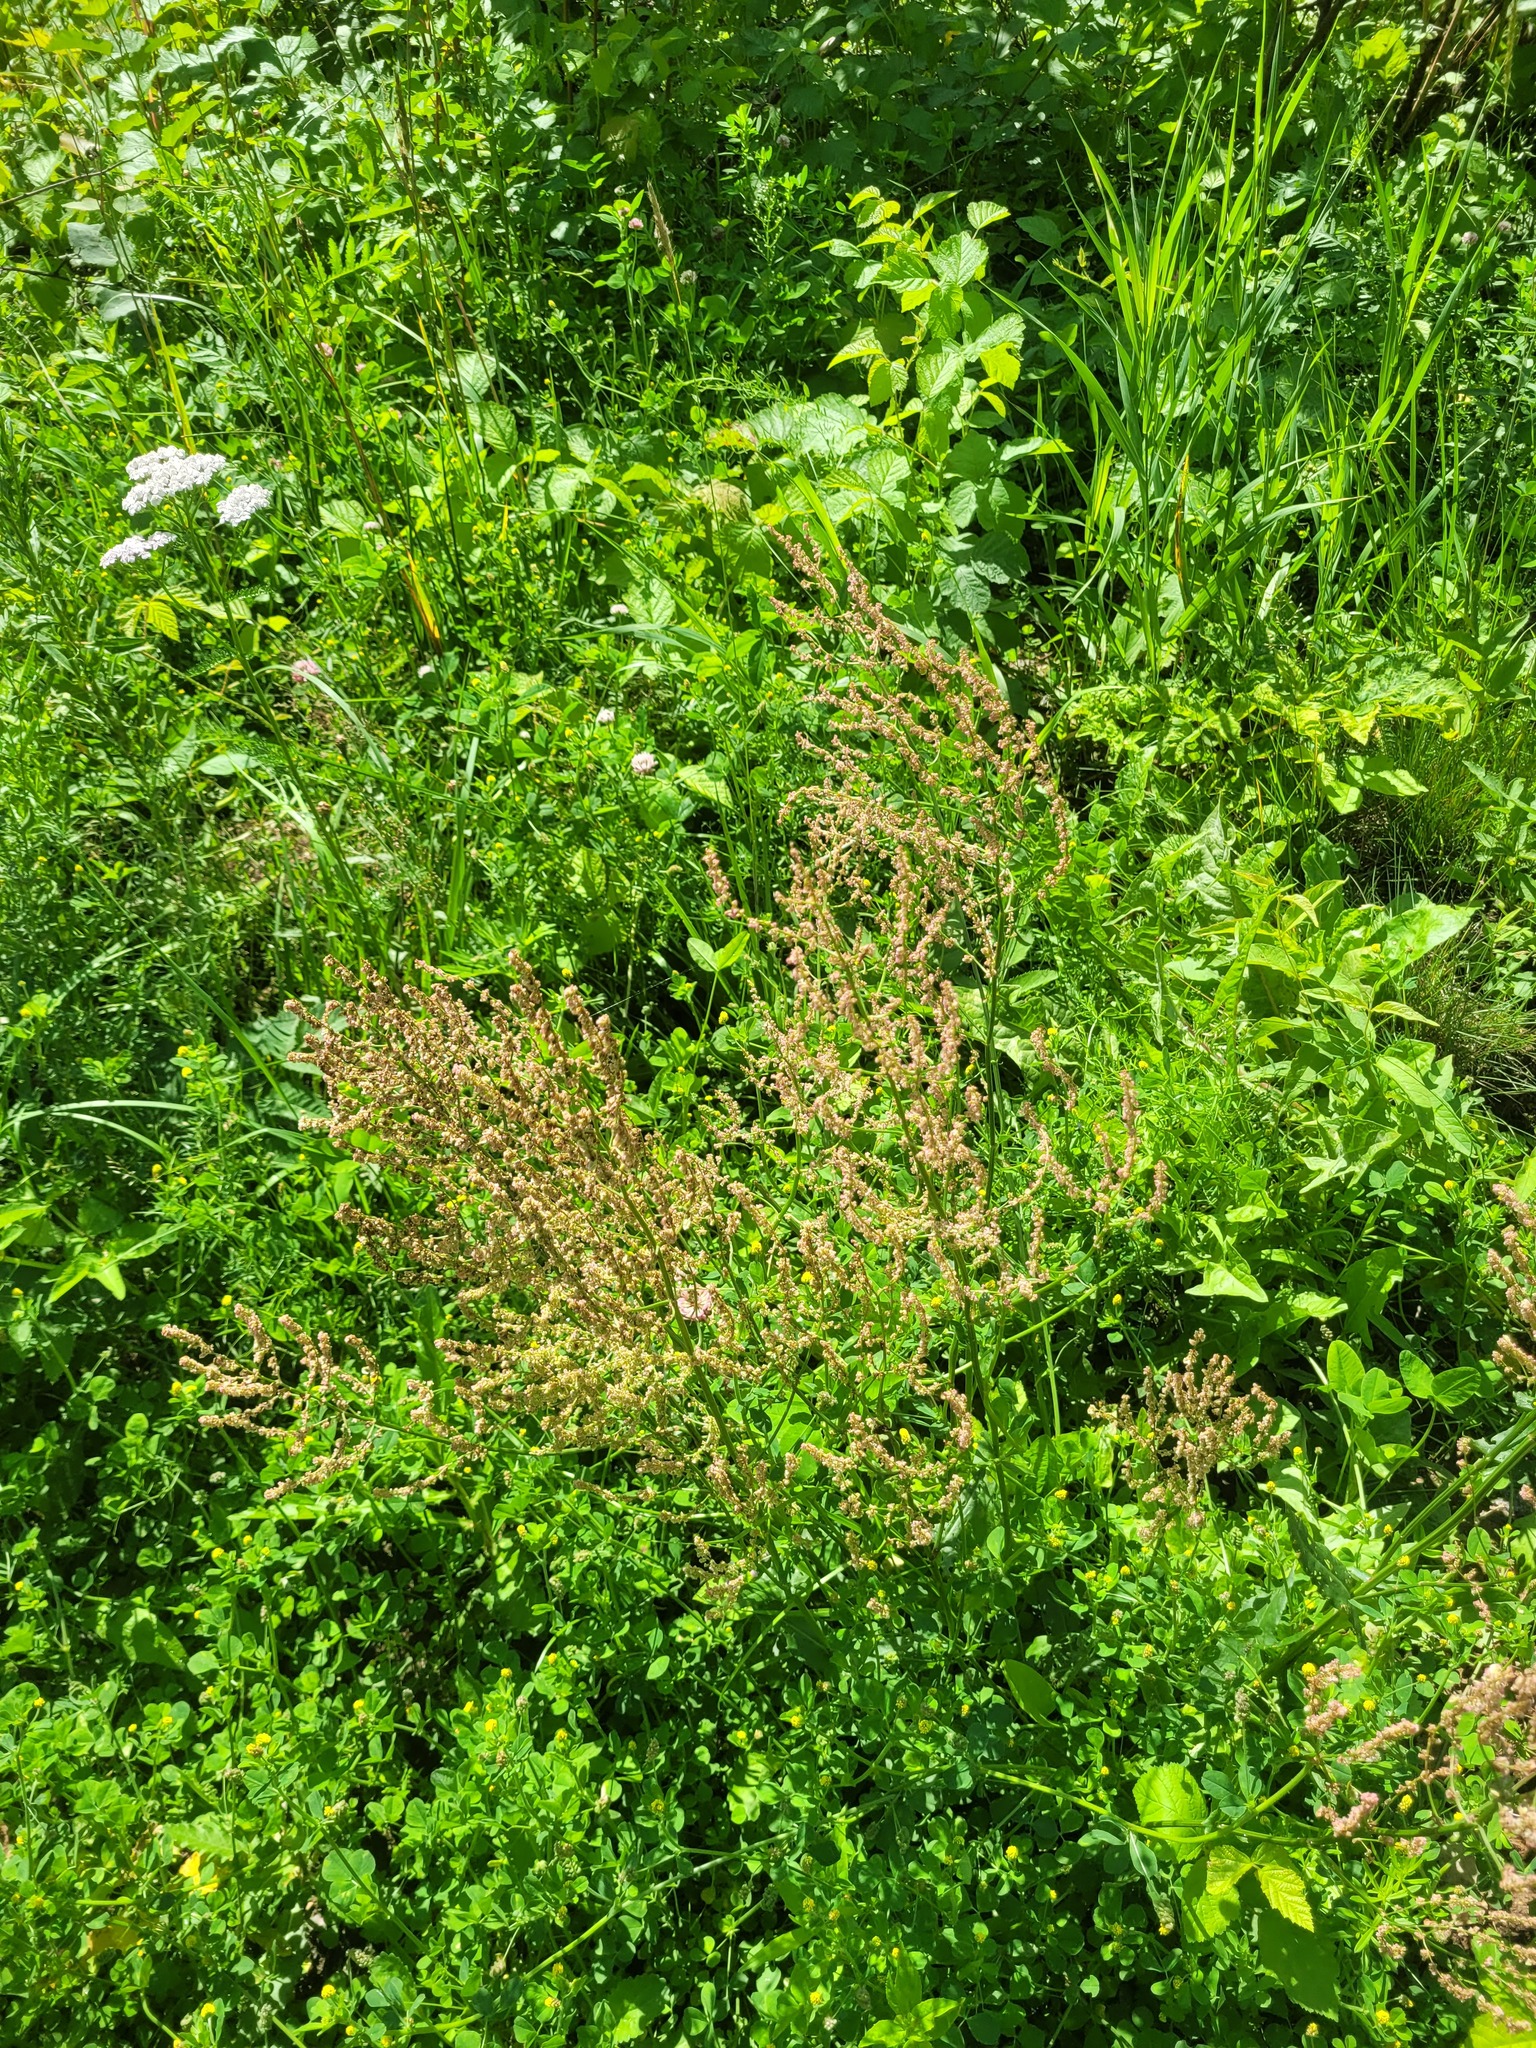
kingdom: Plantae
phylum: Tracheophyta
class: Magnoliopsida
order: Caryophyllales
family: Polygonaceae
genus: Rumex
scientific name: Rumex thyrsiflorus
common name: Garden sorrel
